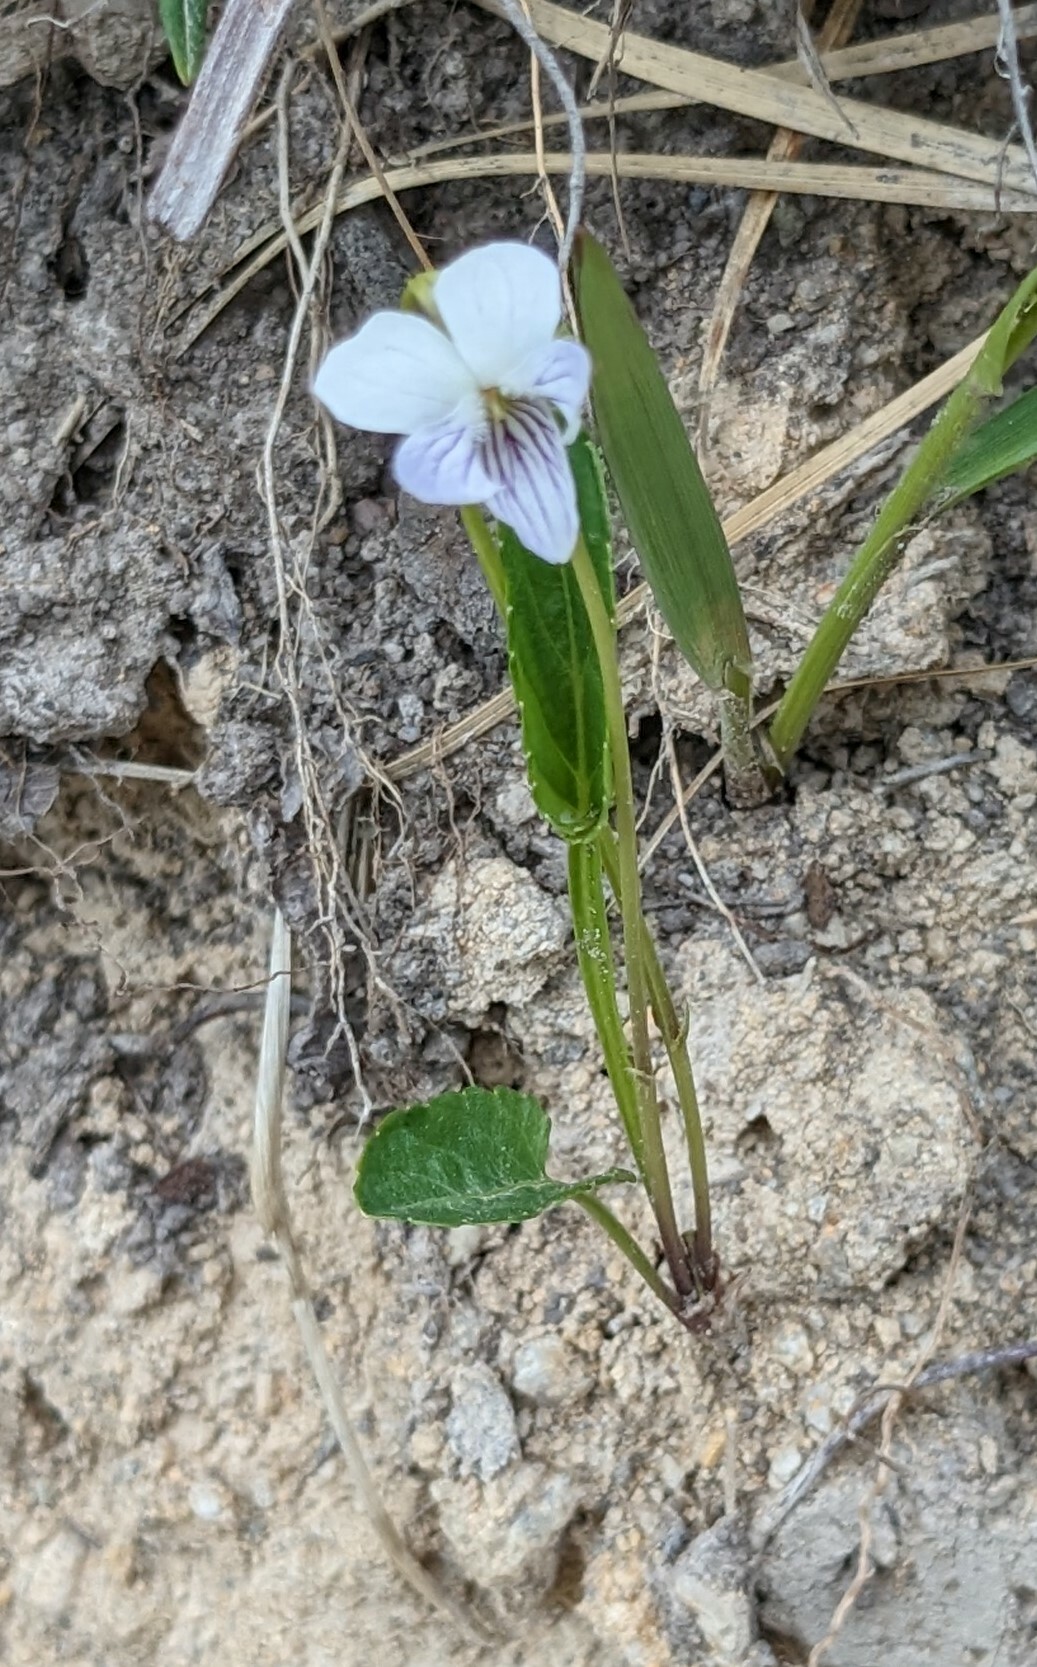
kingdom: Plantae
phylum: Tracheophyta
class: Magnoliopsida
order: Malpighiales
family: Violaceae
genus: Viola
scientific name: Viola patrinii
